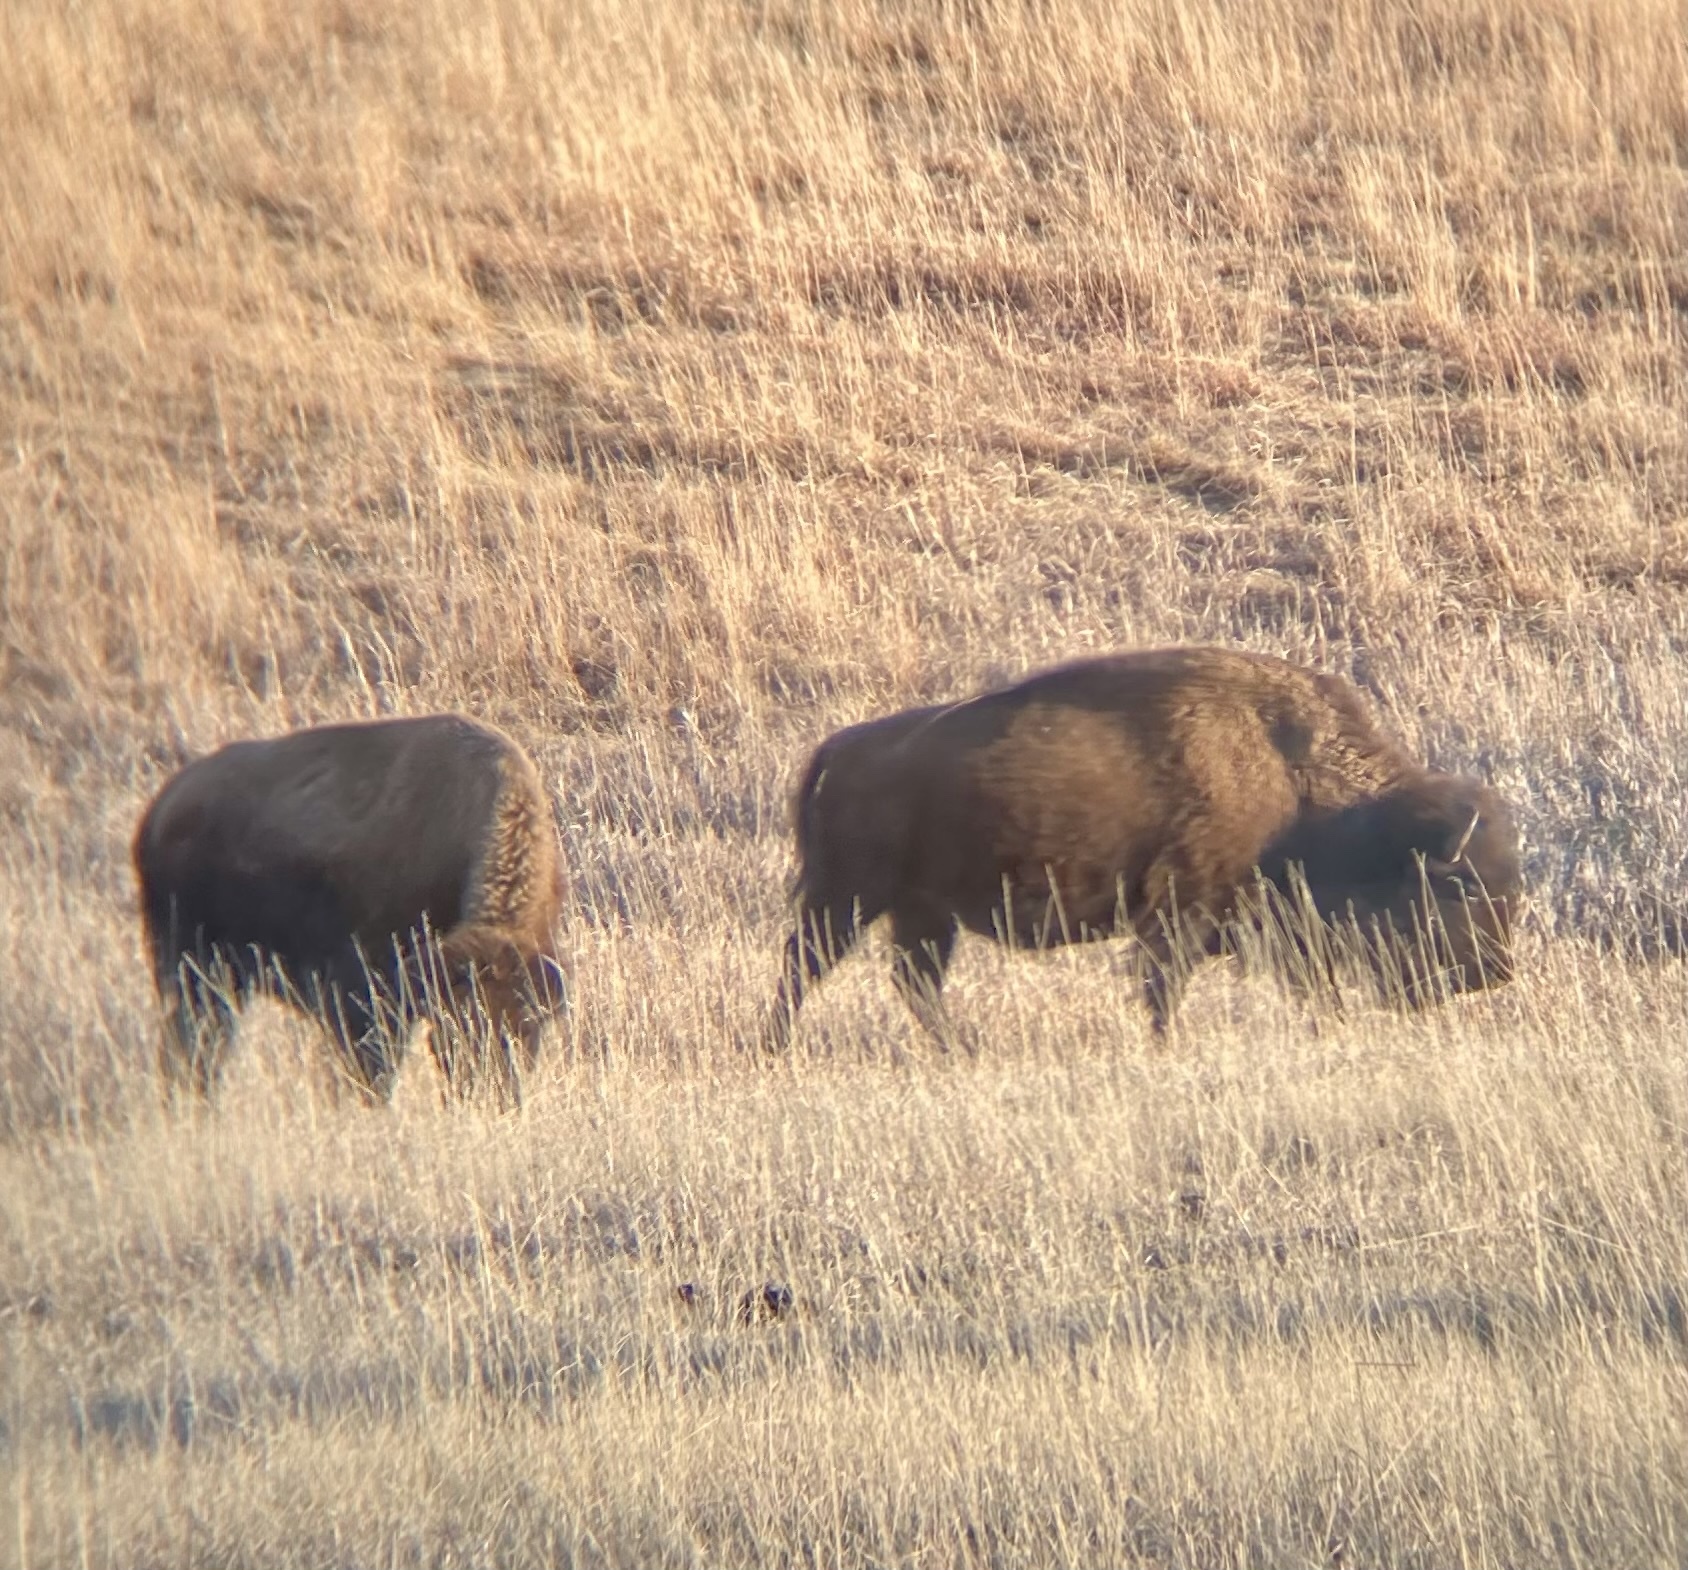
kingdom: Animalia
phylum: Chordata
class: Mammalia
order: Artiodactyla
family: Bovidae
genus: Bison
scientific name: Bison bison
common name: American bison
